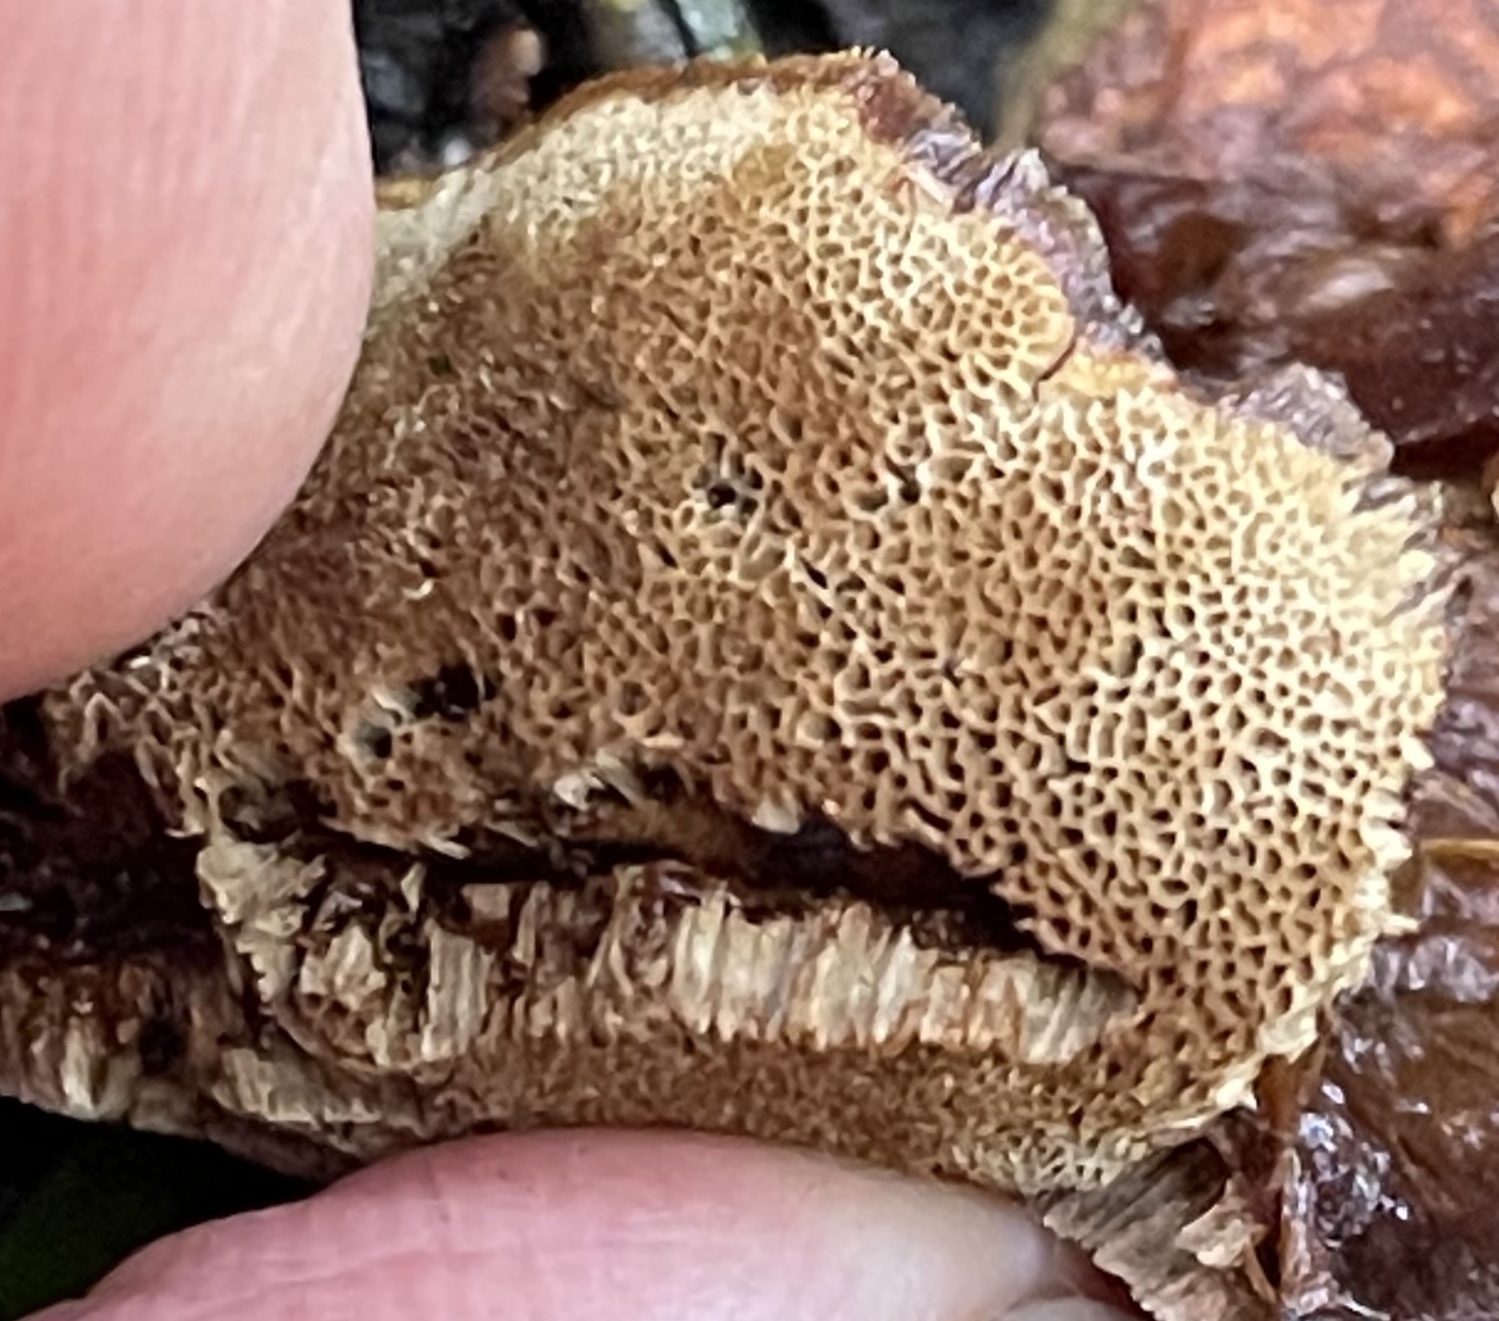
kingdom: Fungi
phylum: Basidiomycota
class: Agaricomycetes
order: Hymenochaetales
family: Hymenochaetaceae
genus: Coltricia
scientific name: Coltricia perennis
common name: Tiger's eye
